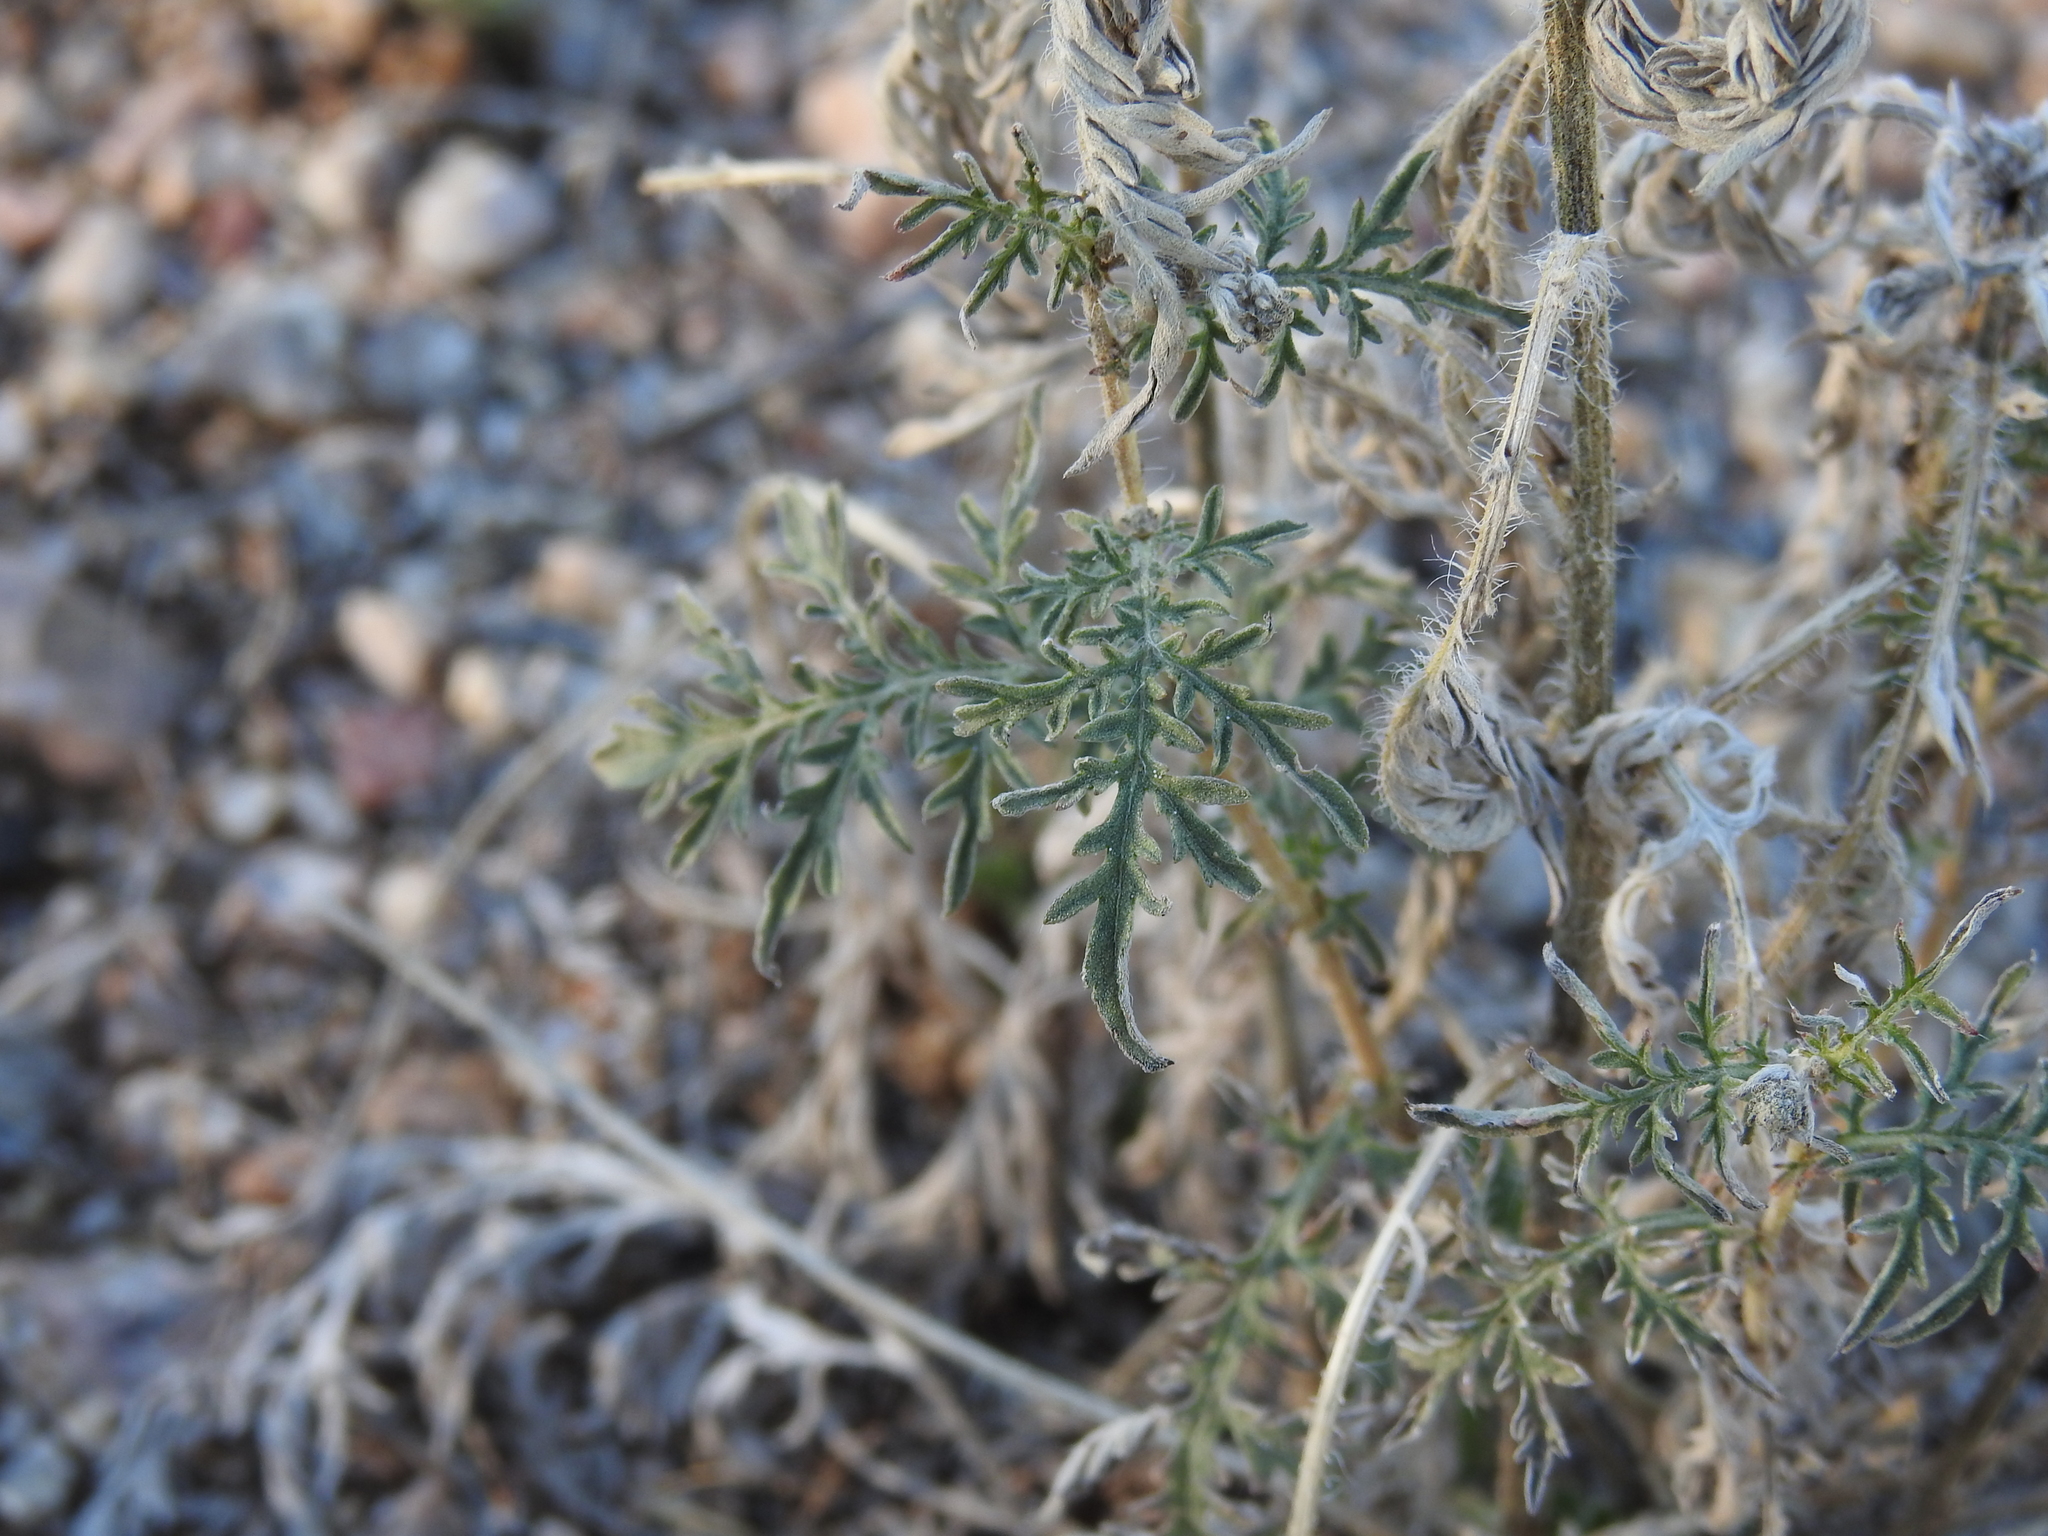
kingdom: Plantae
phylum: Tracheophyta
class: Magnoliopsida
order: Asterales
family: Asteraceae
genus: Ambrosia
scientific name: Ambrosia confertiflora
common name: Bur ragweed
